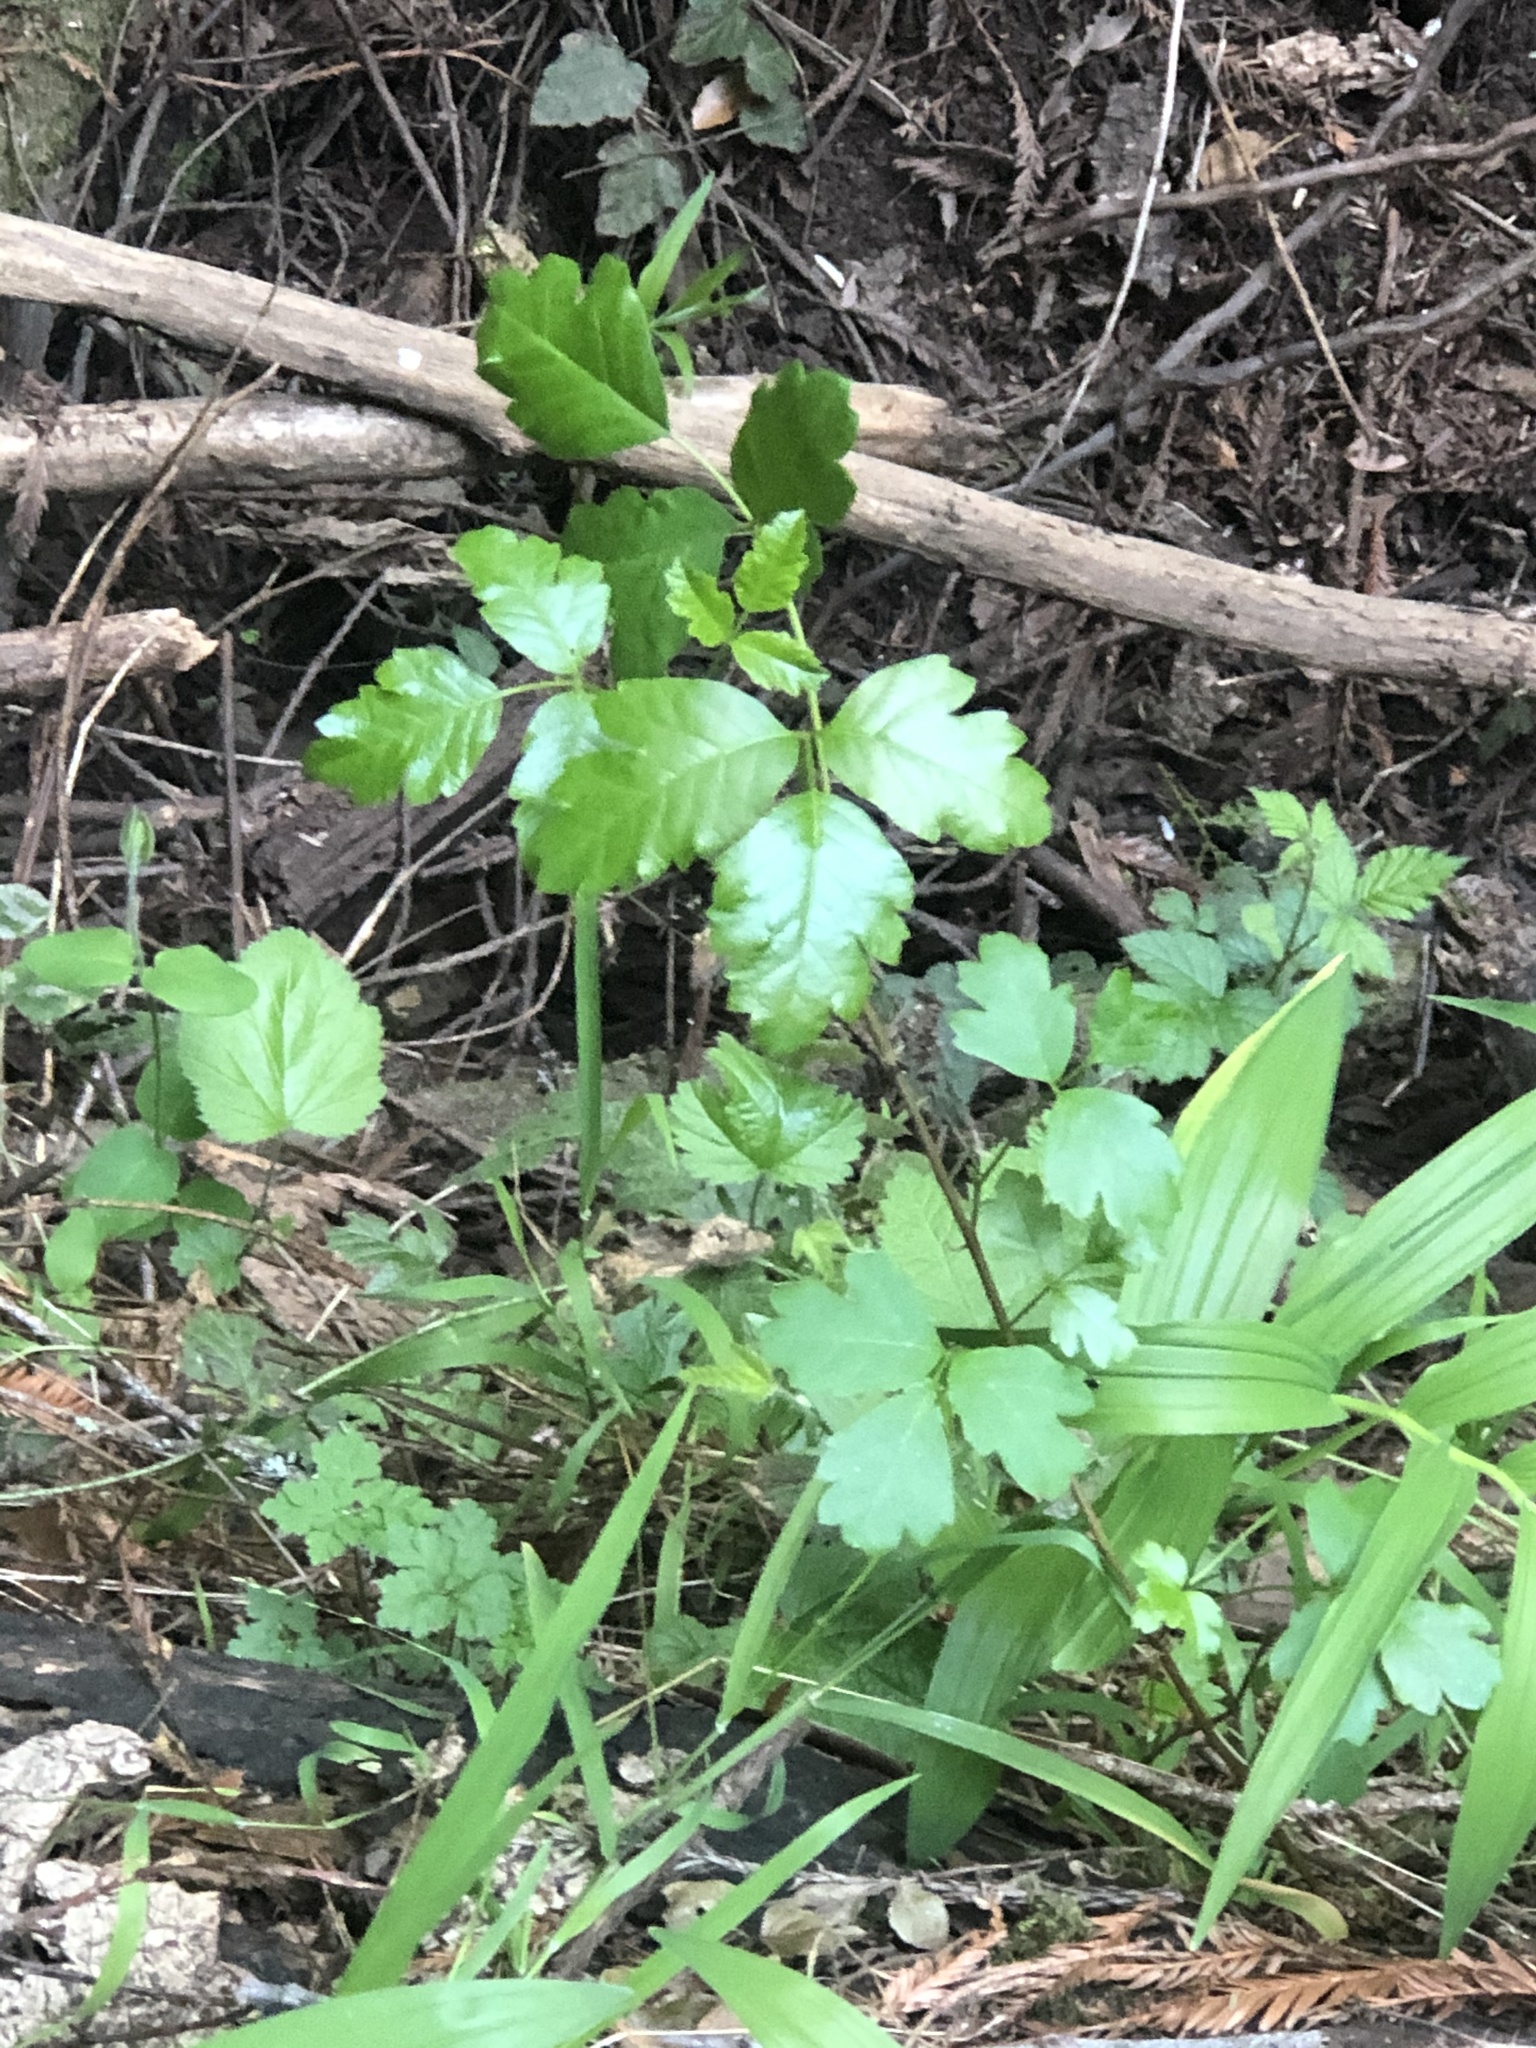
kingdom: Plantae
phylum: Tracheophyta
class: Magnoliopsida
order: Sapindales
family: Anacardiaceae
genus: Toxicodendron
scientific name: Toxicodendron diversilobum
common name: Pacific poison-oak
